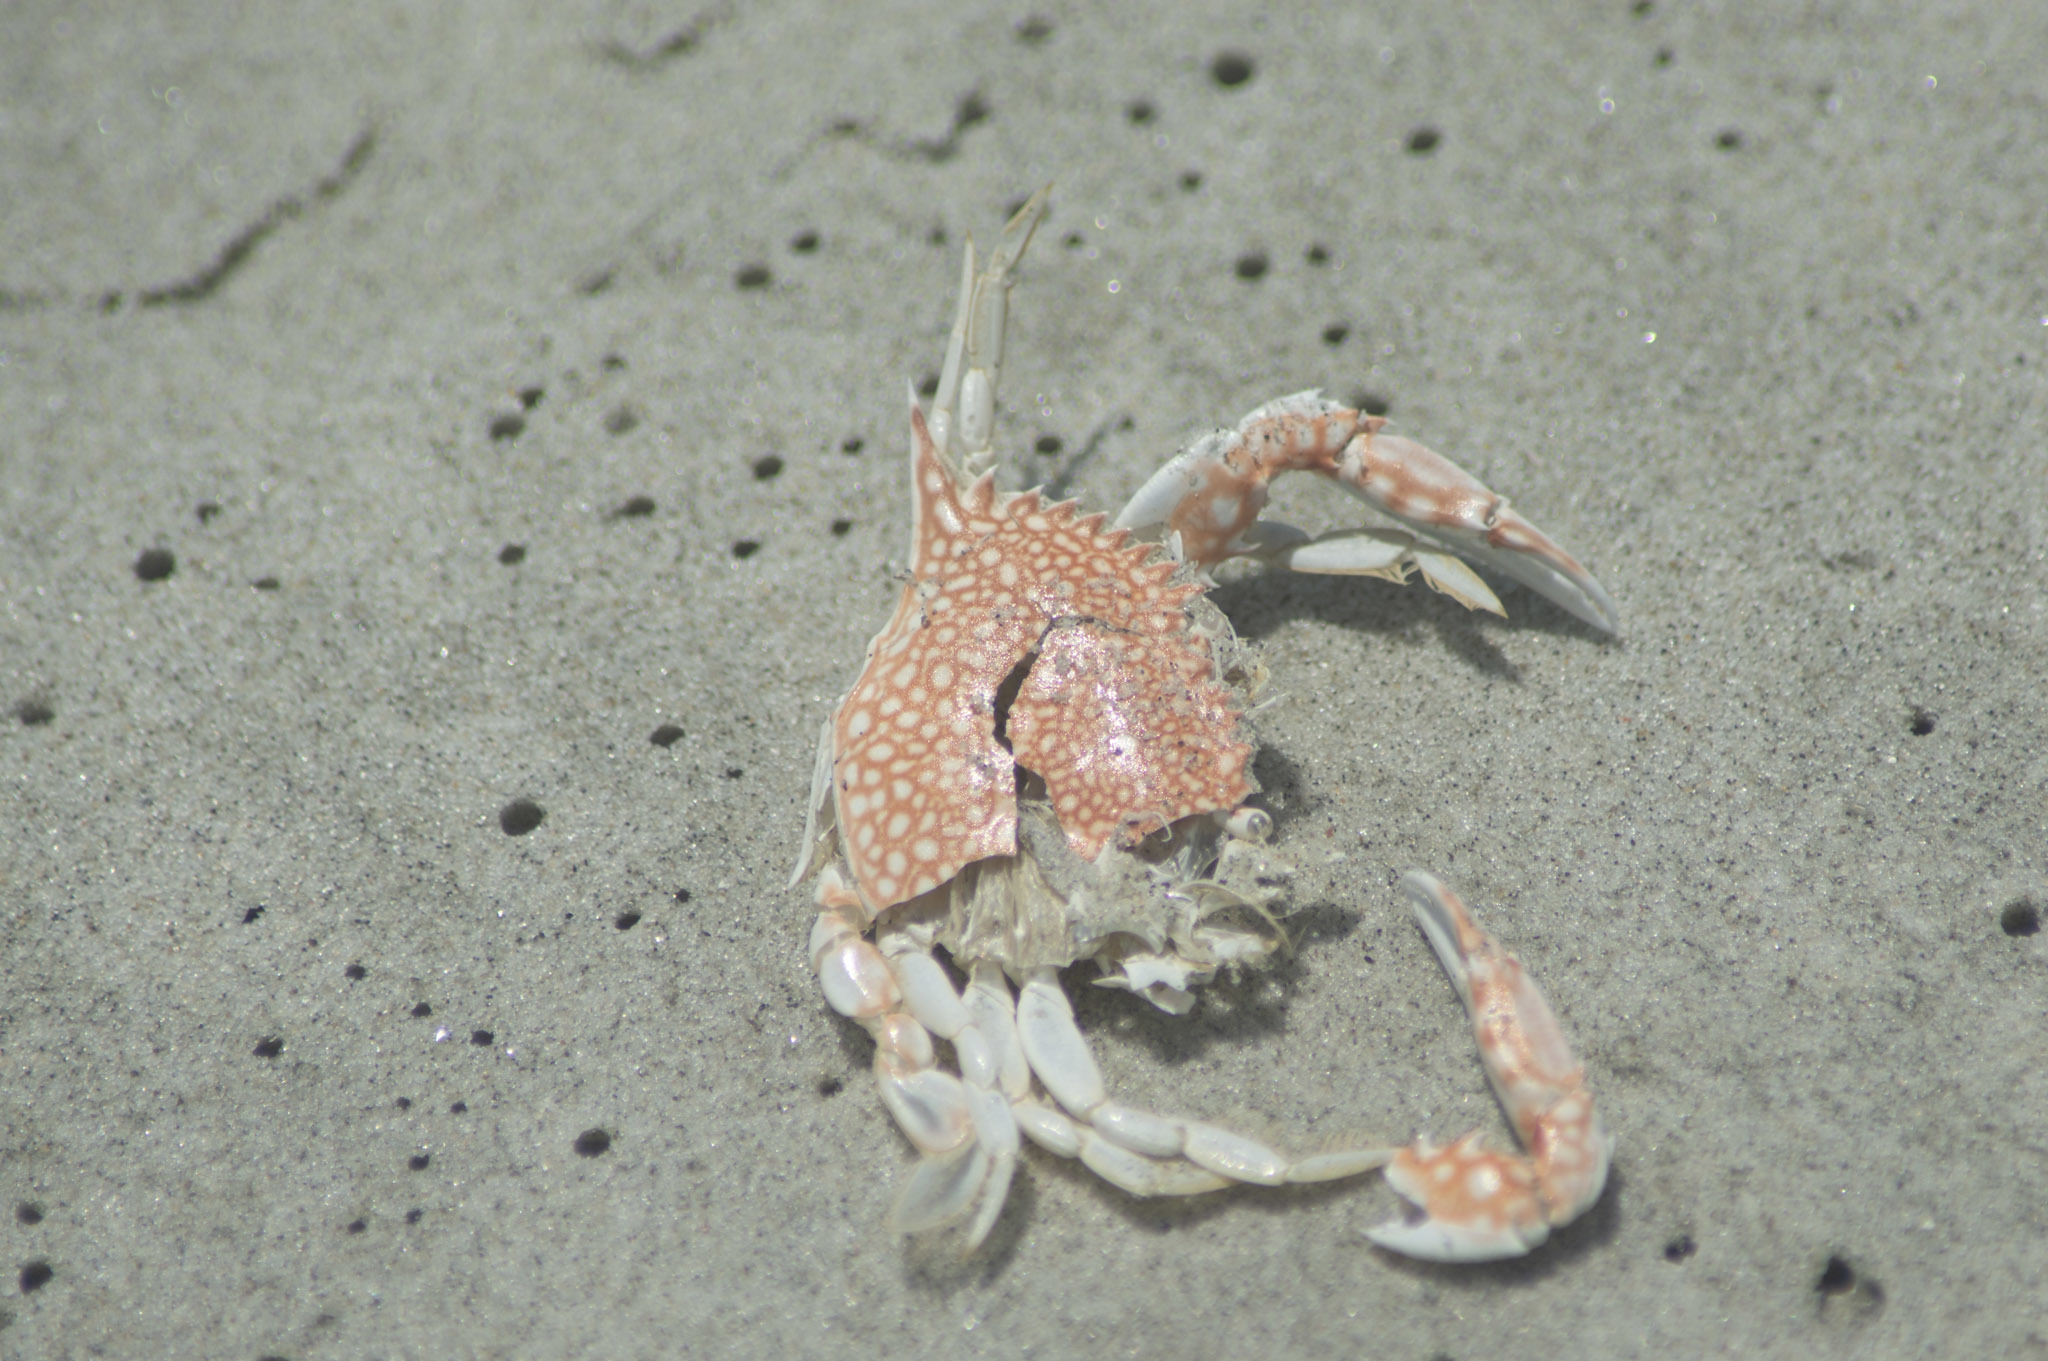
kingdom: Animalia
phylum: Arthropoda
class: Malacostraca
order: Decapoda
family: Portunidae
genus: Arenaeus
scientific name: Arenaeus cribrarius
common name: Speckled crab
